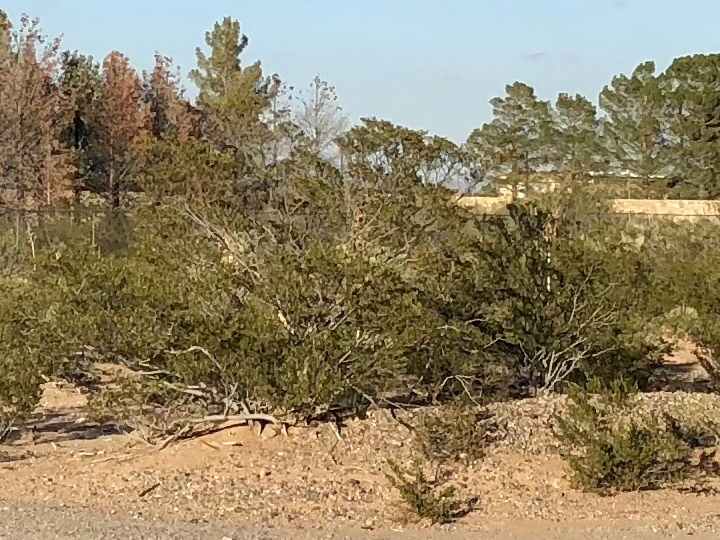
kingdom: Plantae
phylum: Tracheophyta
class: Magnoliopsida
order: Zygophyllales
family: Zygophyllaceae
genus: Larrea
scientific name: Larrea tridentata
